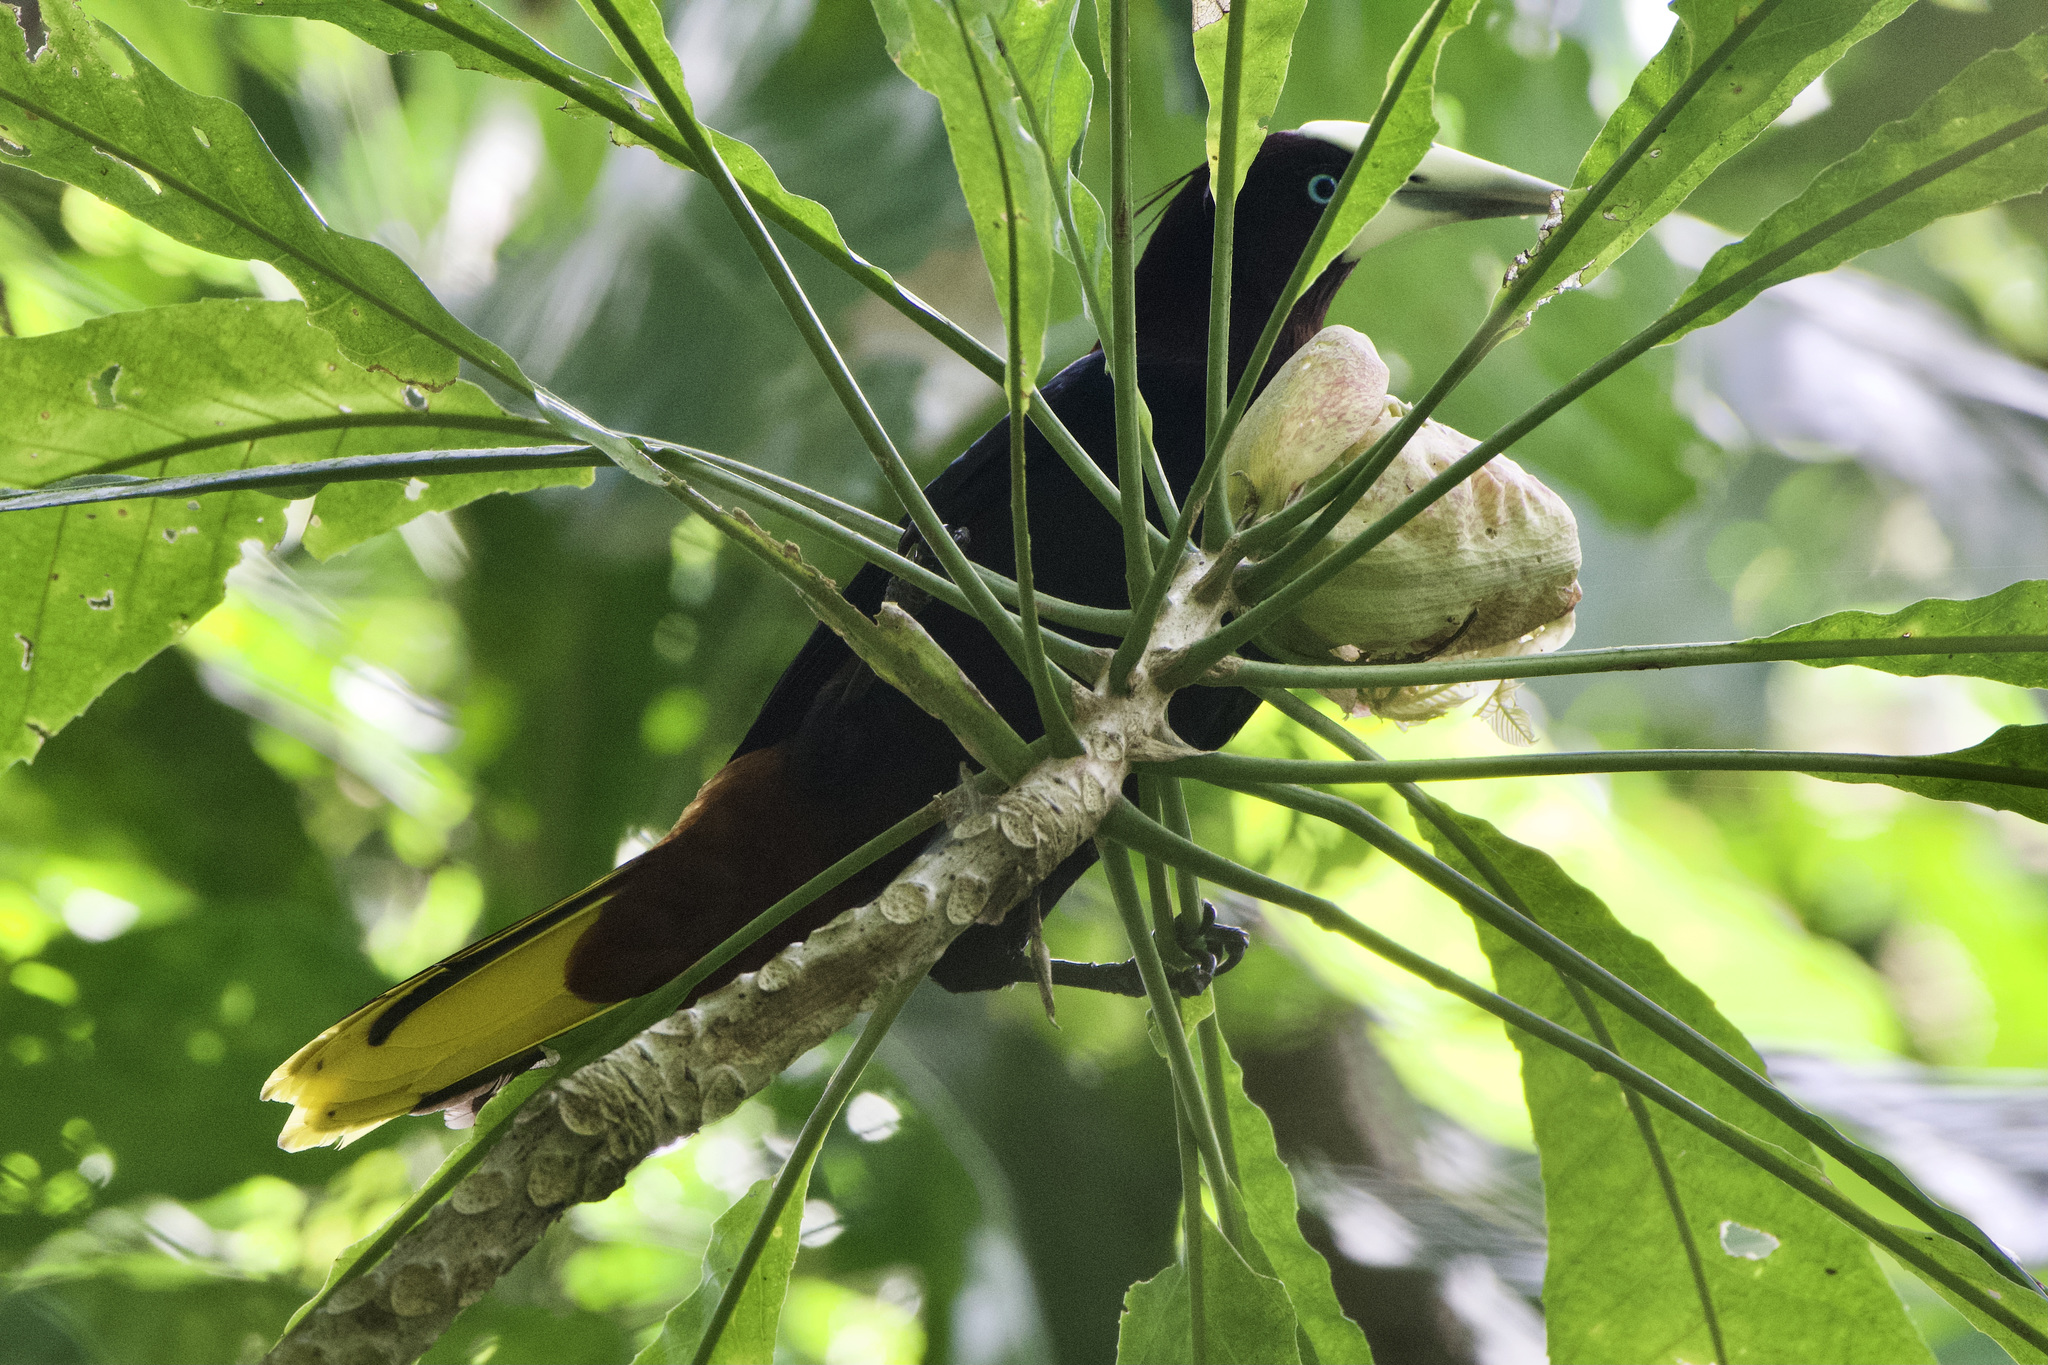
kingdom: Animalia
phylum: Chordata
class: Aves
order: Passeriformes
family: Icteridae
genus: Psarocolius
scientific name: Psarocolius wagleri
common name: Chestnut-headed oropendola
